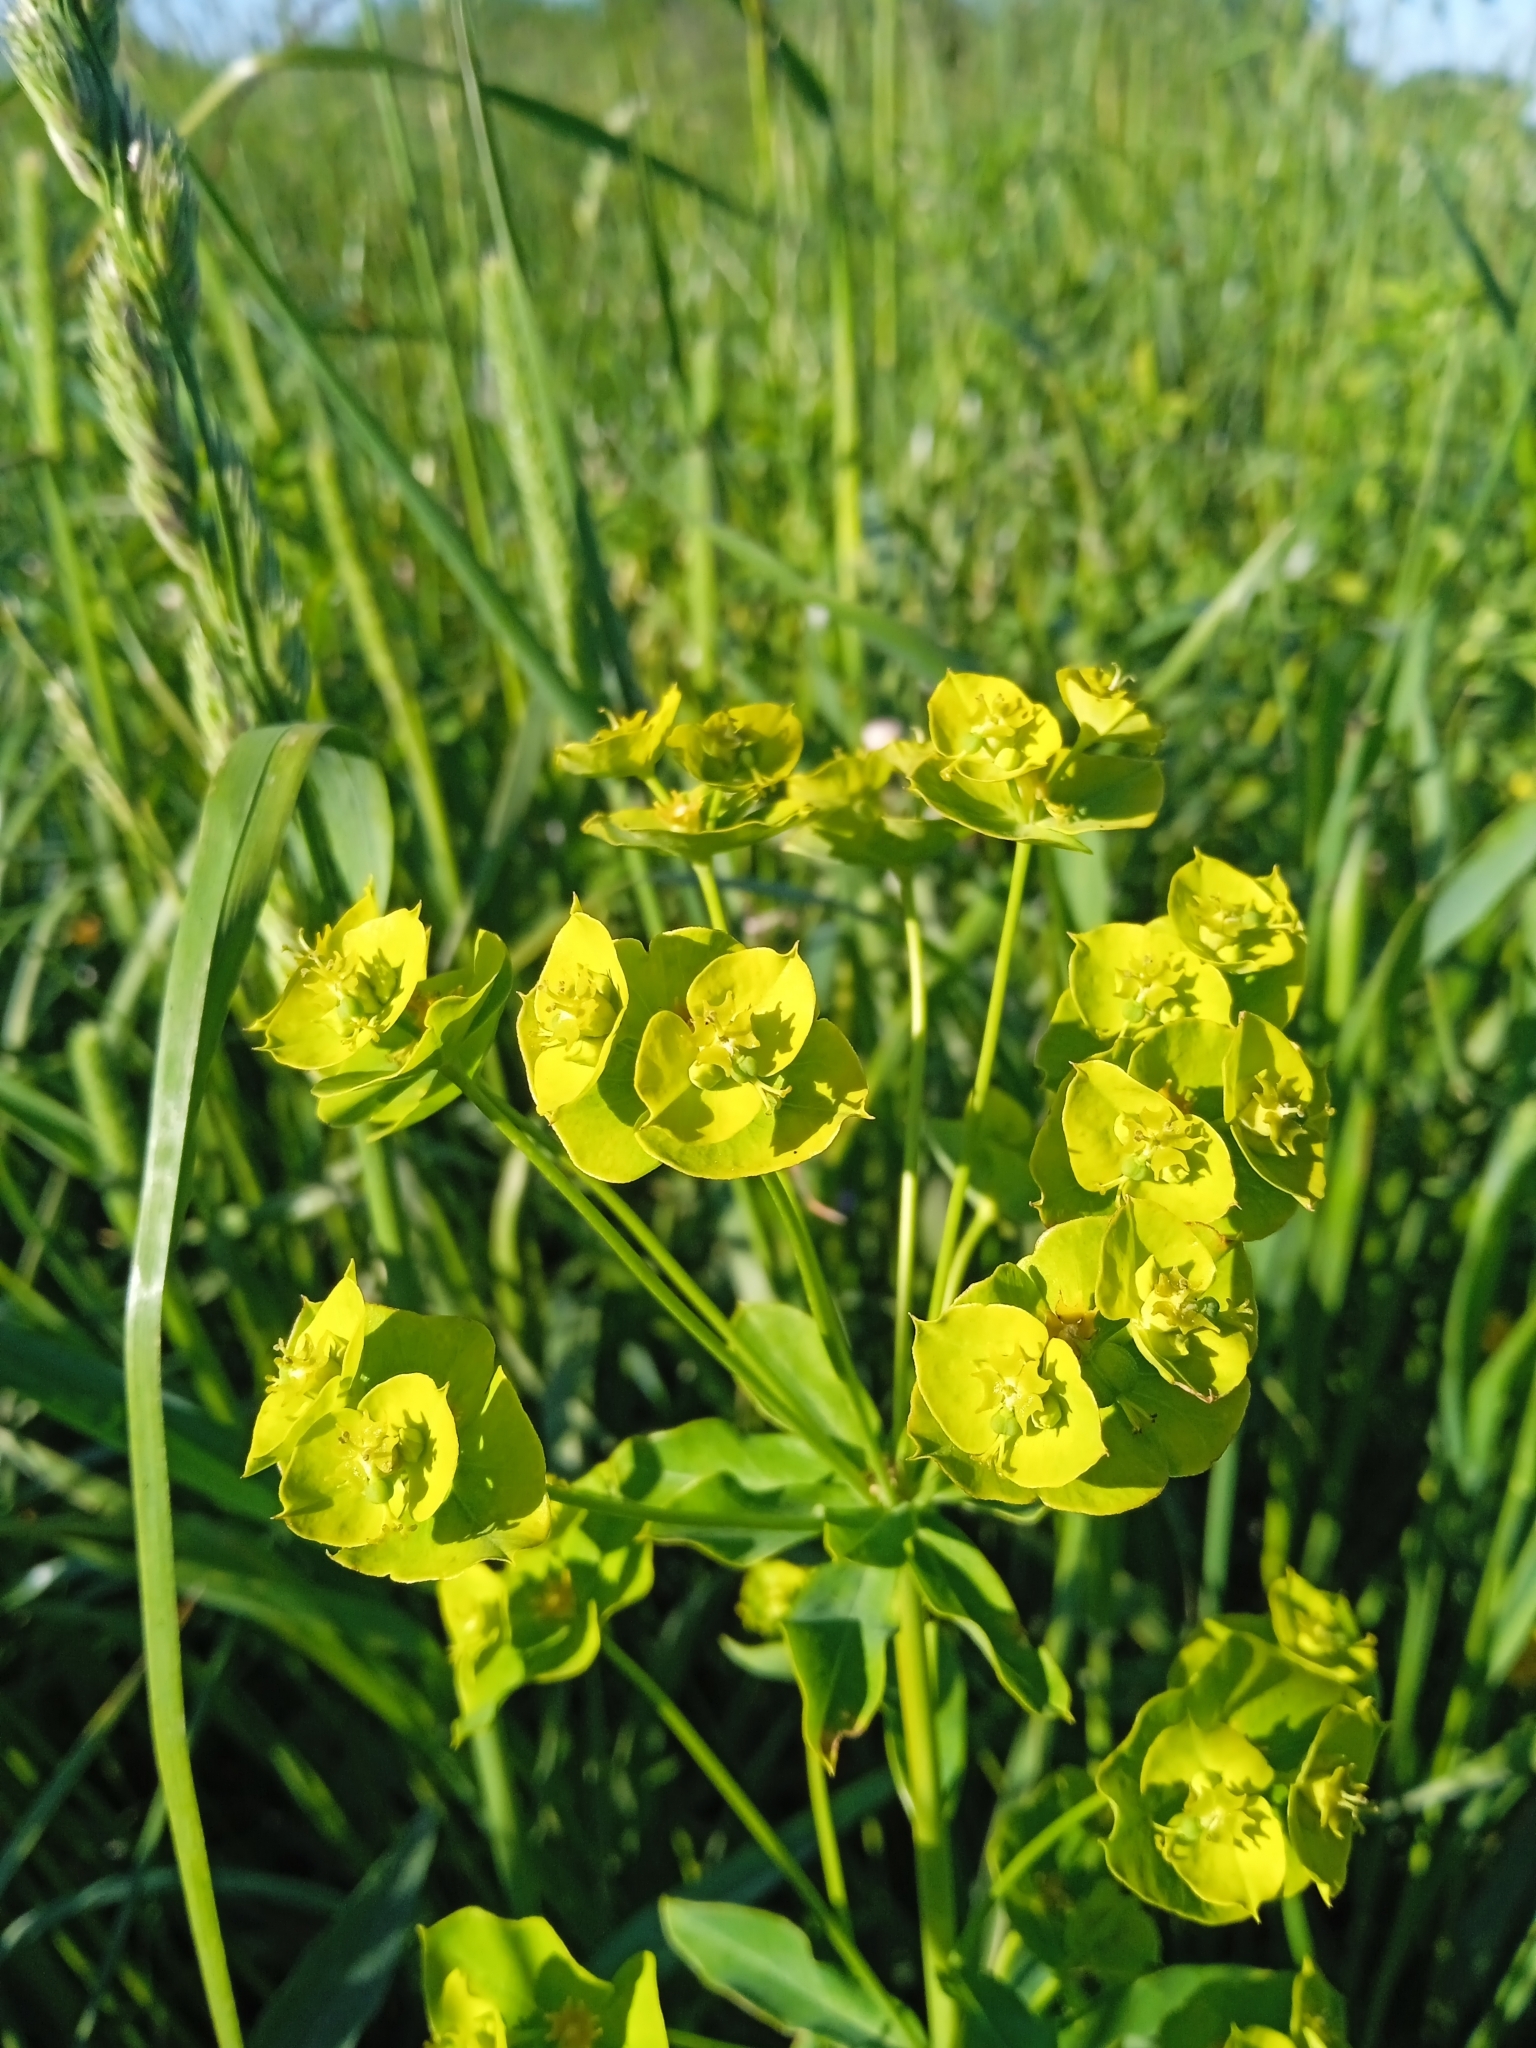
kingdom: Plantae
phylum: Tracheophyta
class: Magnoliopsida
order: Malpighiales
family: Euphorbiaceae
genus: Euphorbia
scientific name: Euphorbia esula
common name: Leafy spurge
